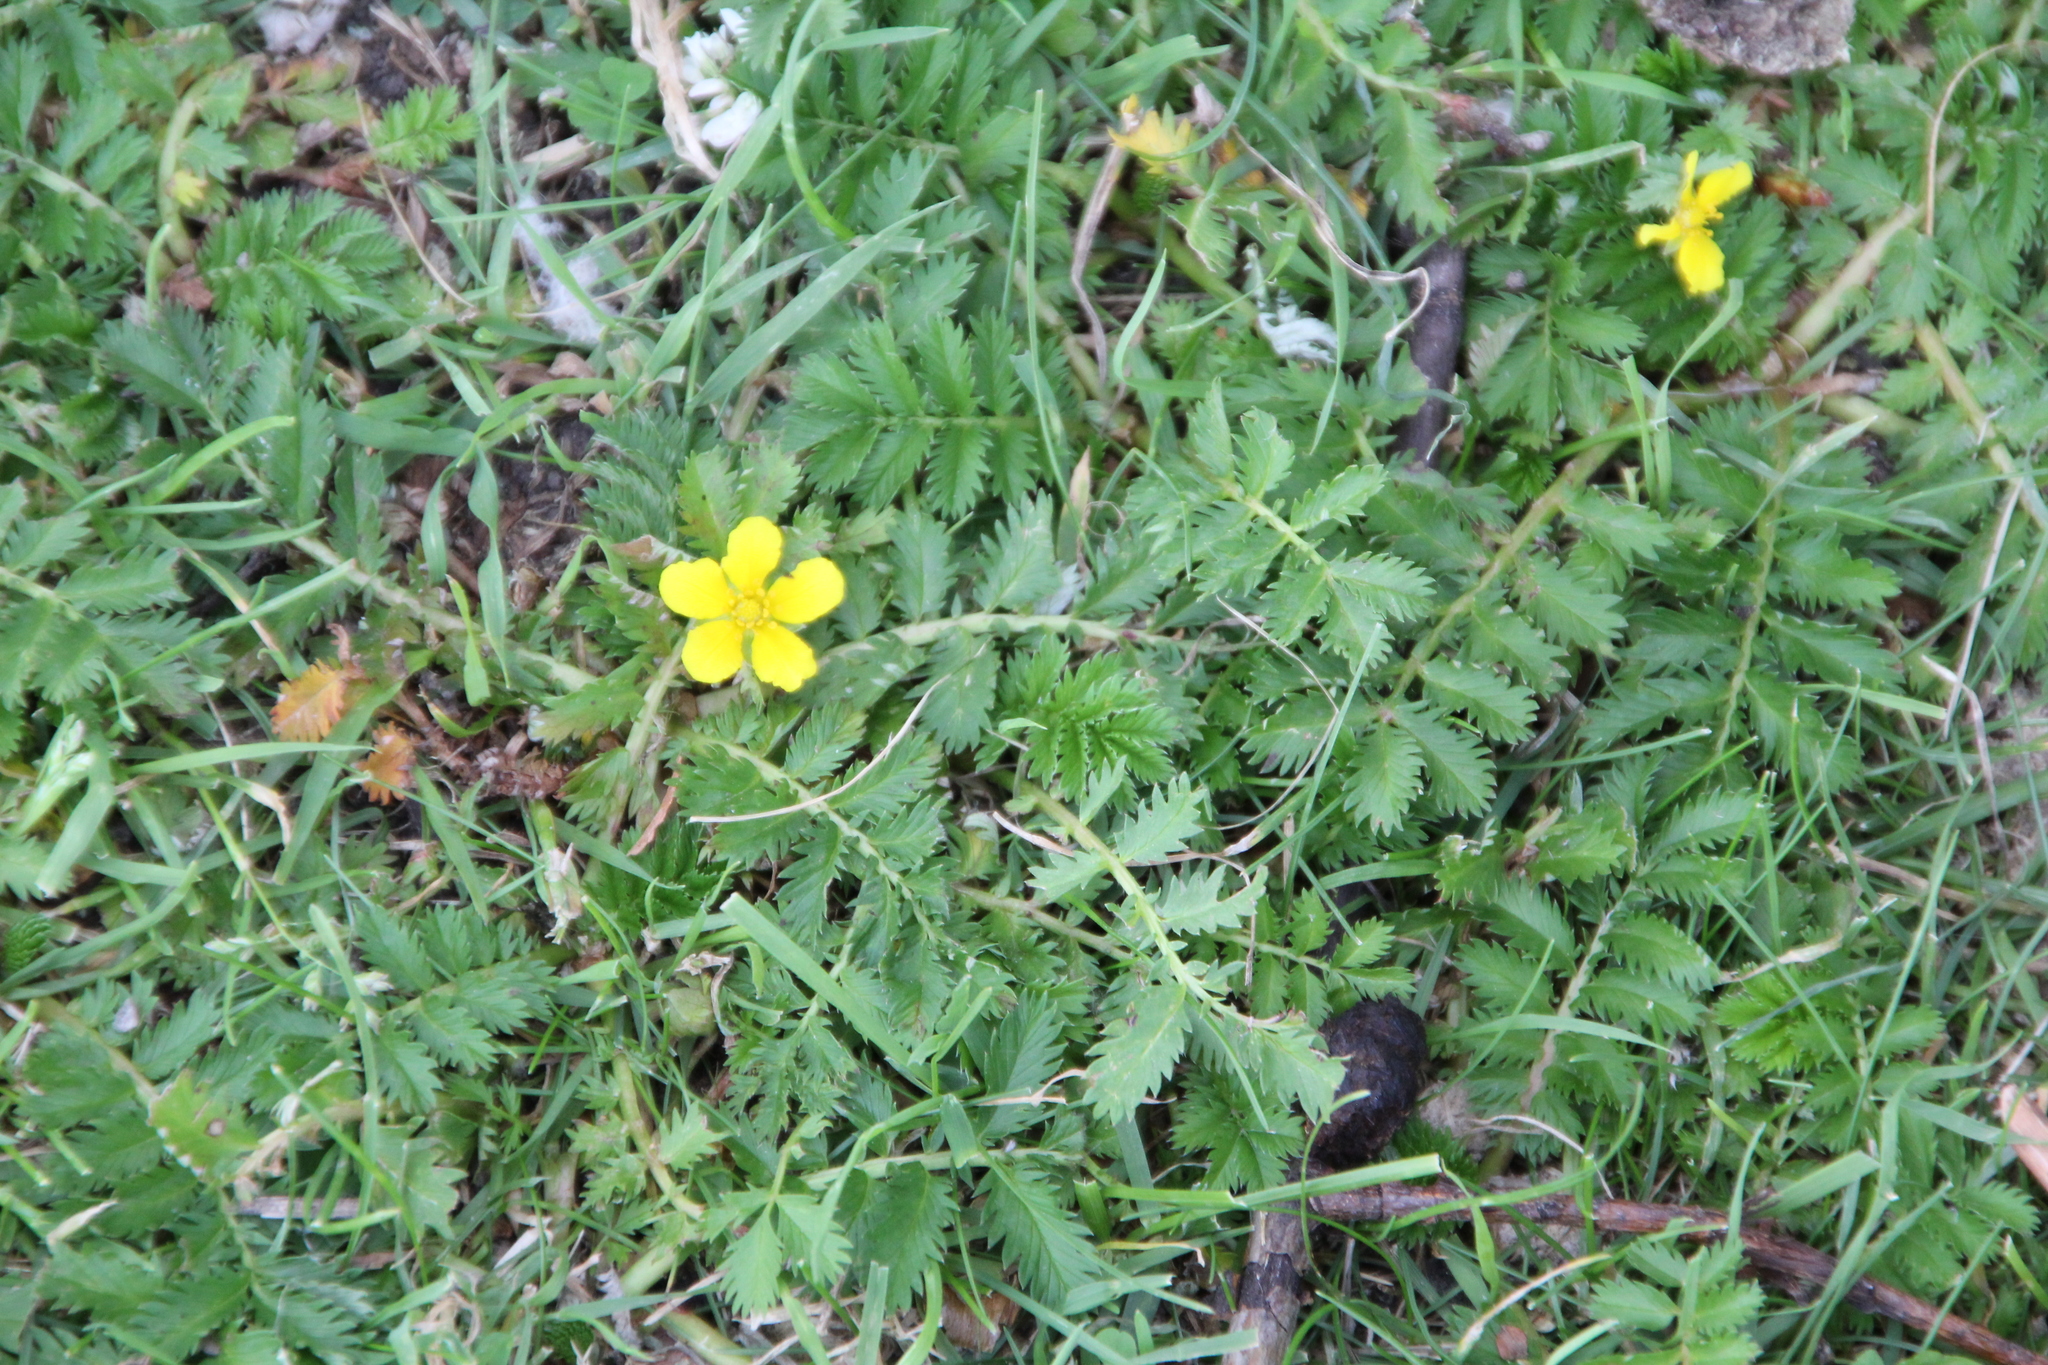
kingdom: Plantae
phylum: Tracheophyta
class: Magnoliopsida
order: Rosales
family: Rosaceae
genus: Argentina
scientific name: Argentina anserina
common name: Common silverweed
